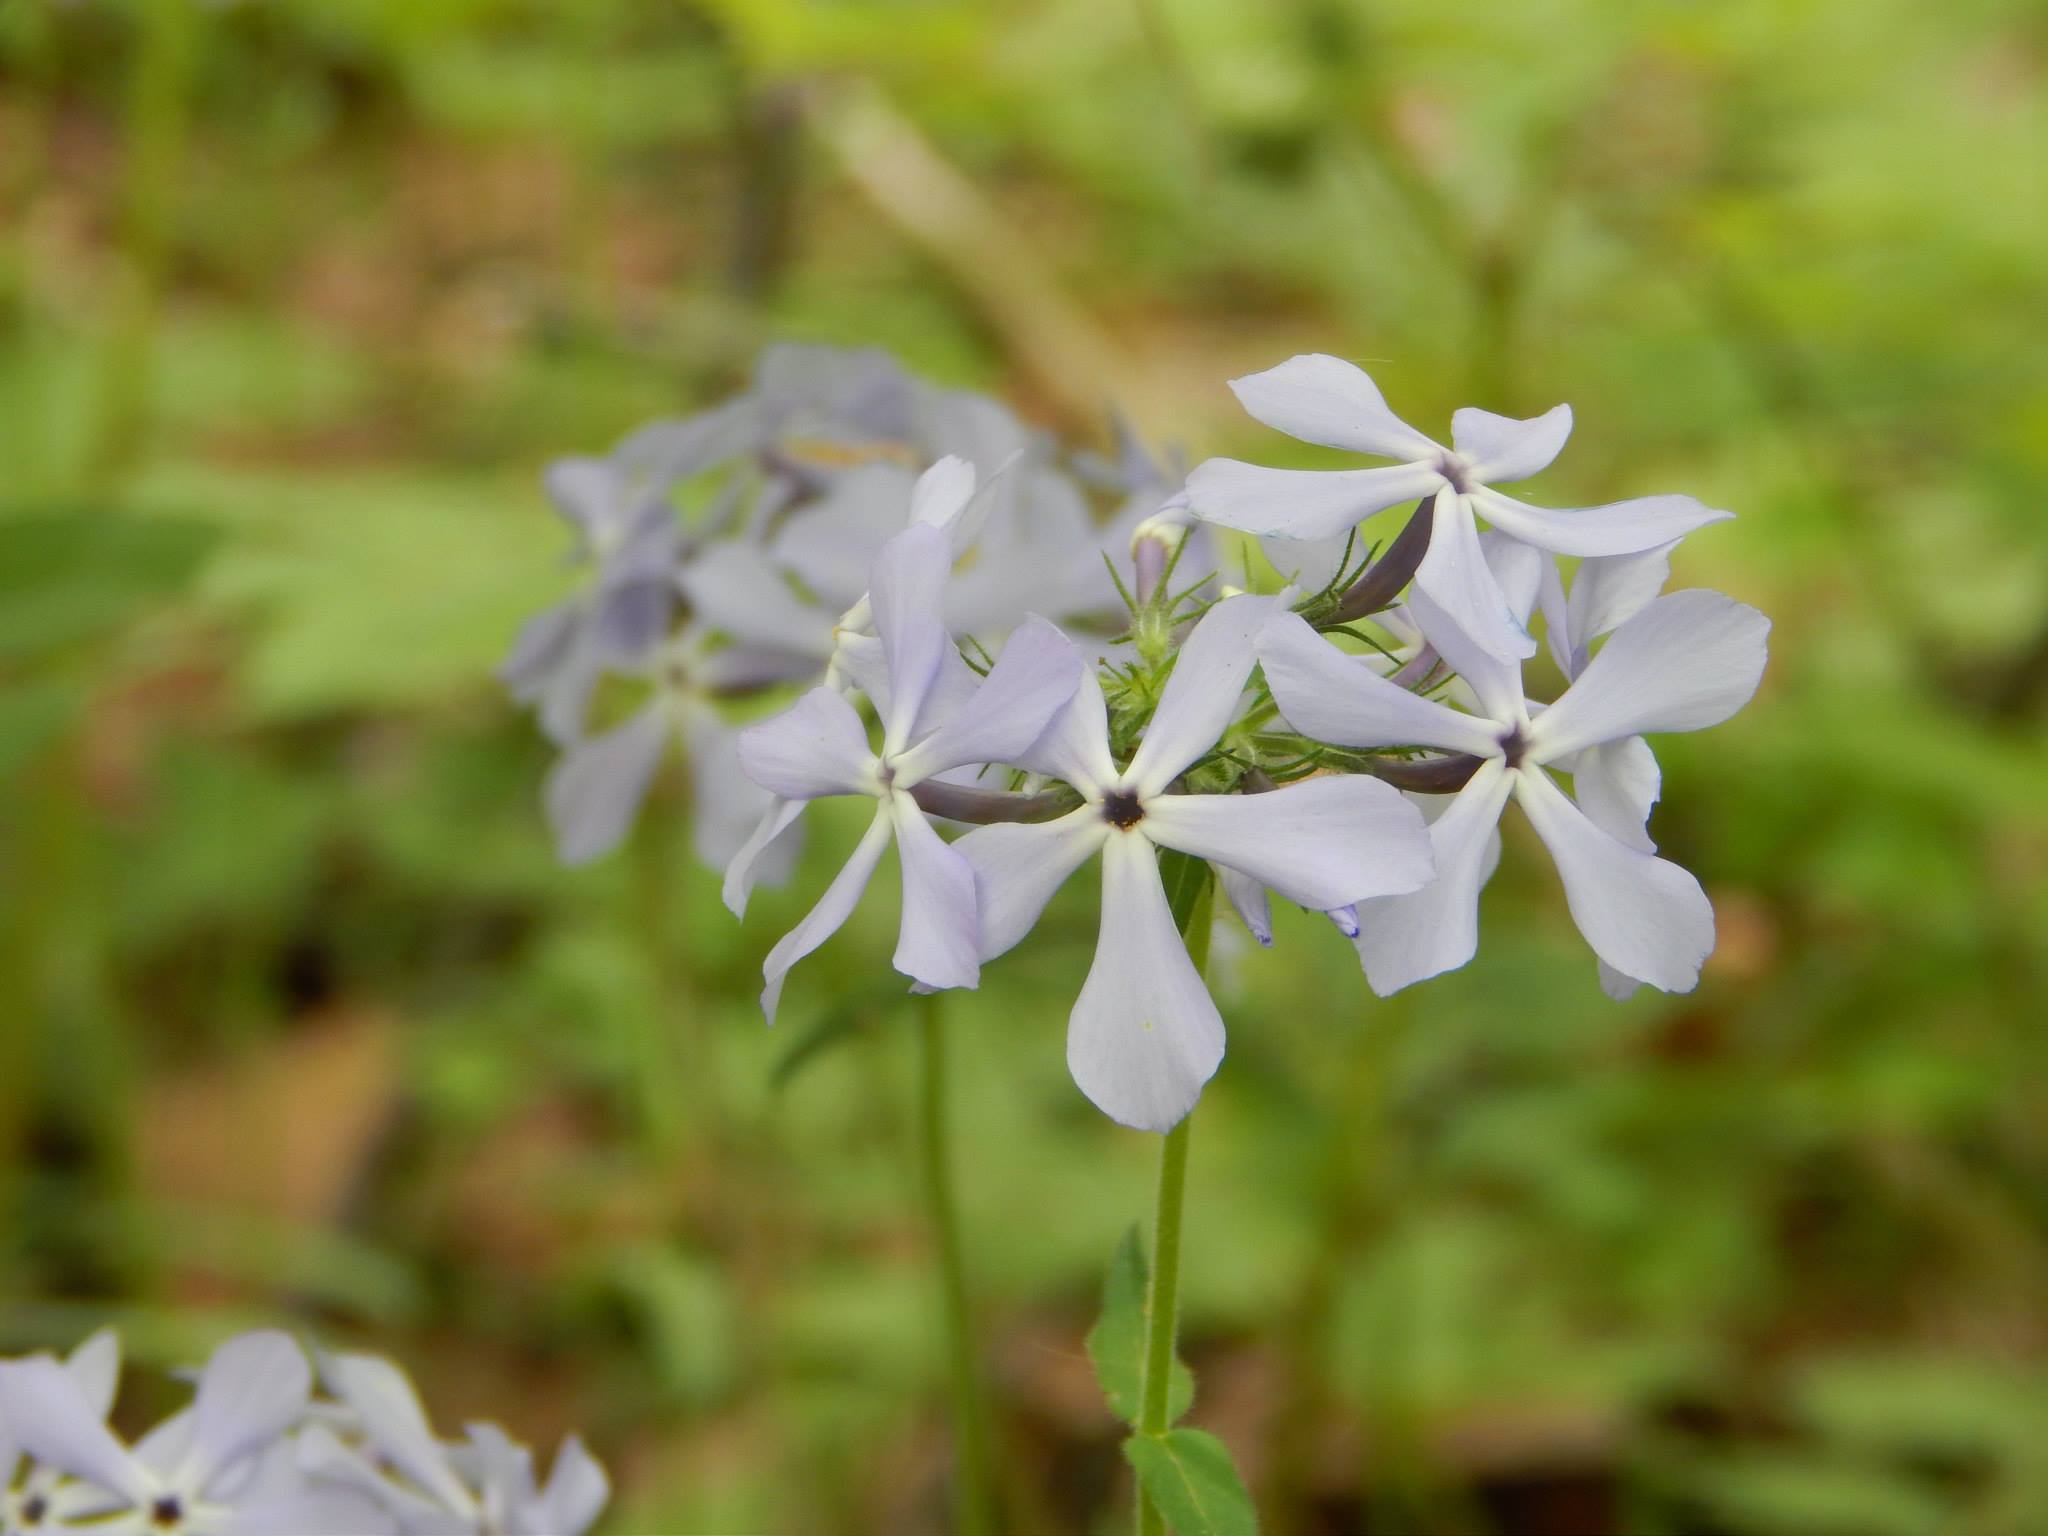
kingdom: Plantae
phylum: Tracheophyta
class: Magnoliopsida
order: Ericales
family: Polemoniaceae
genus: Phlox
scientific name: Phlox divaricata
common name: Blue phlox
